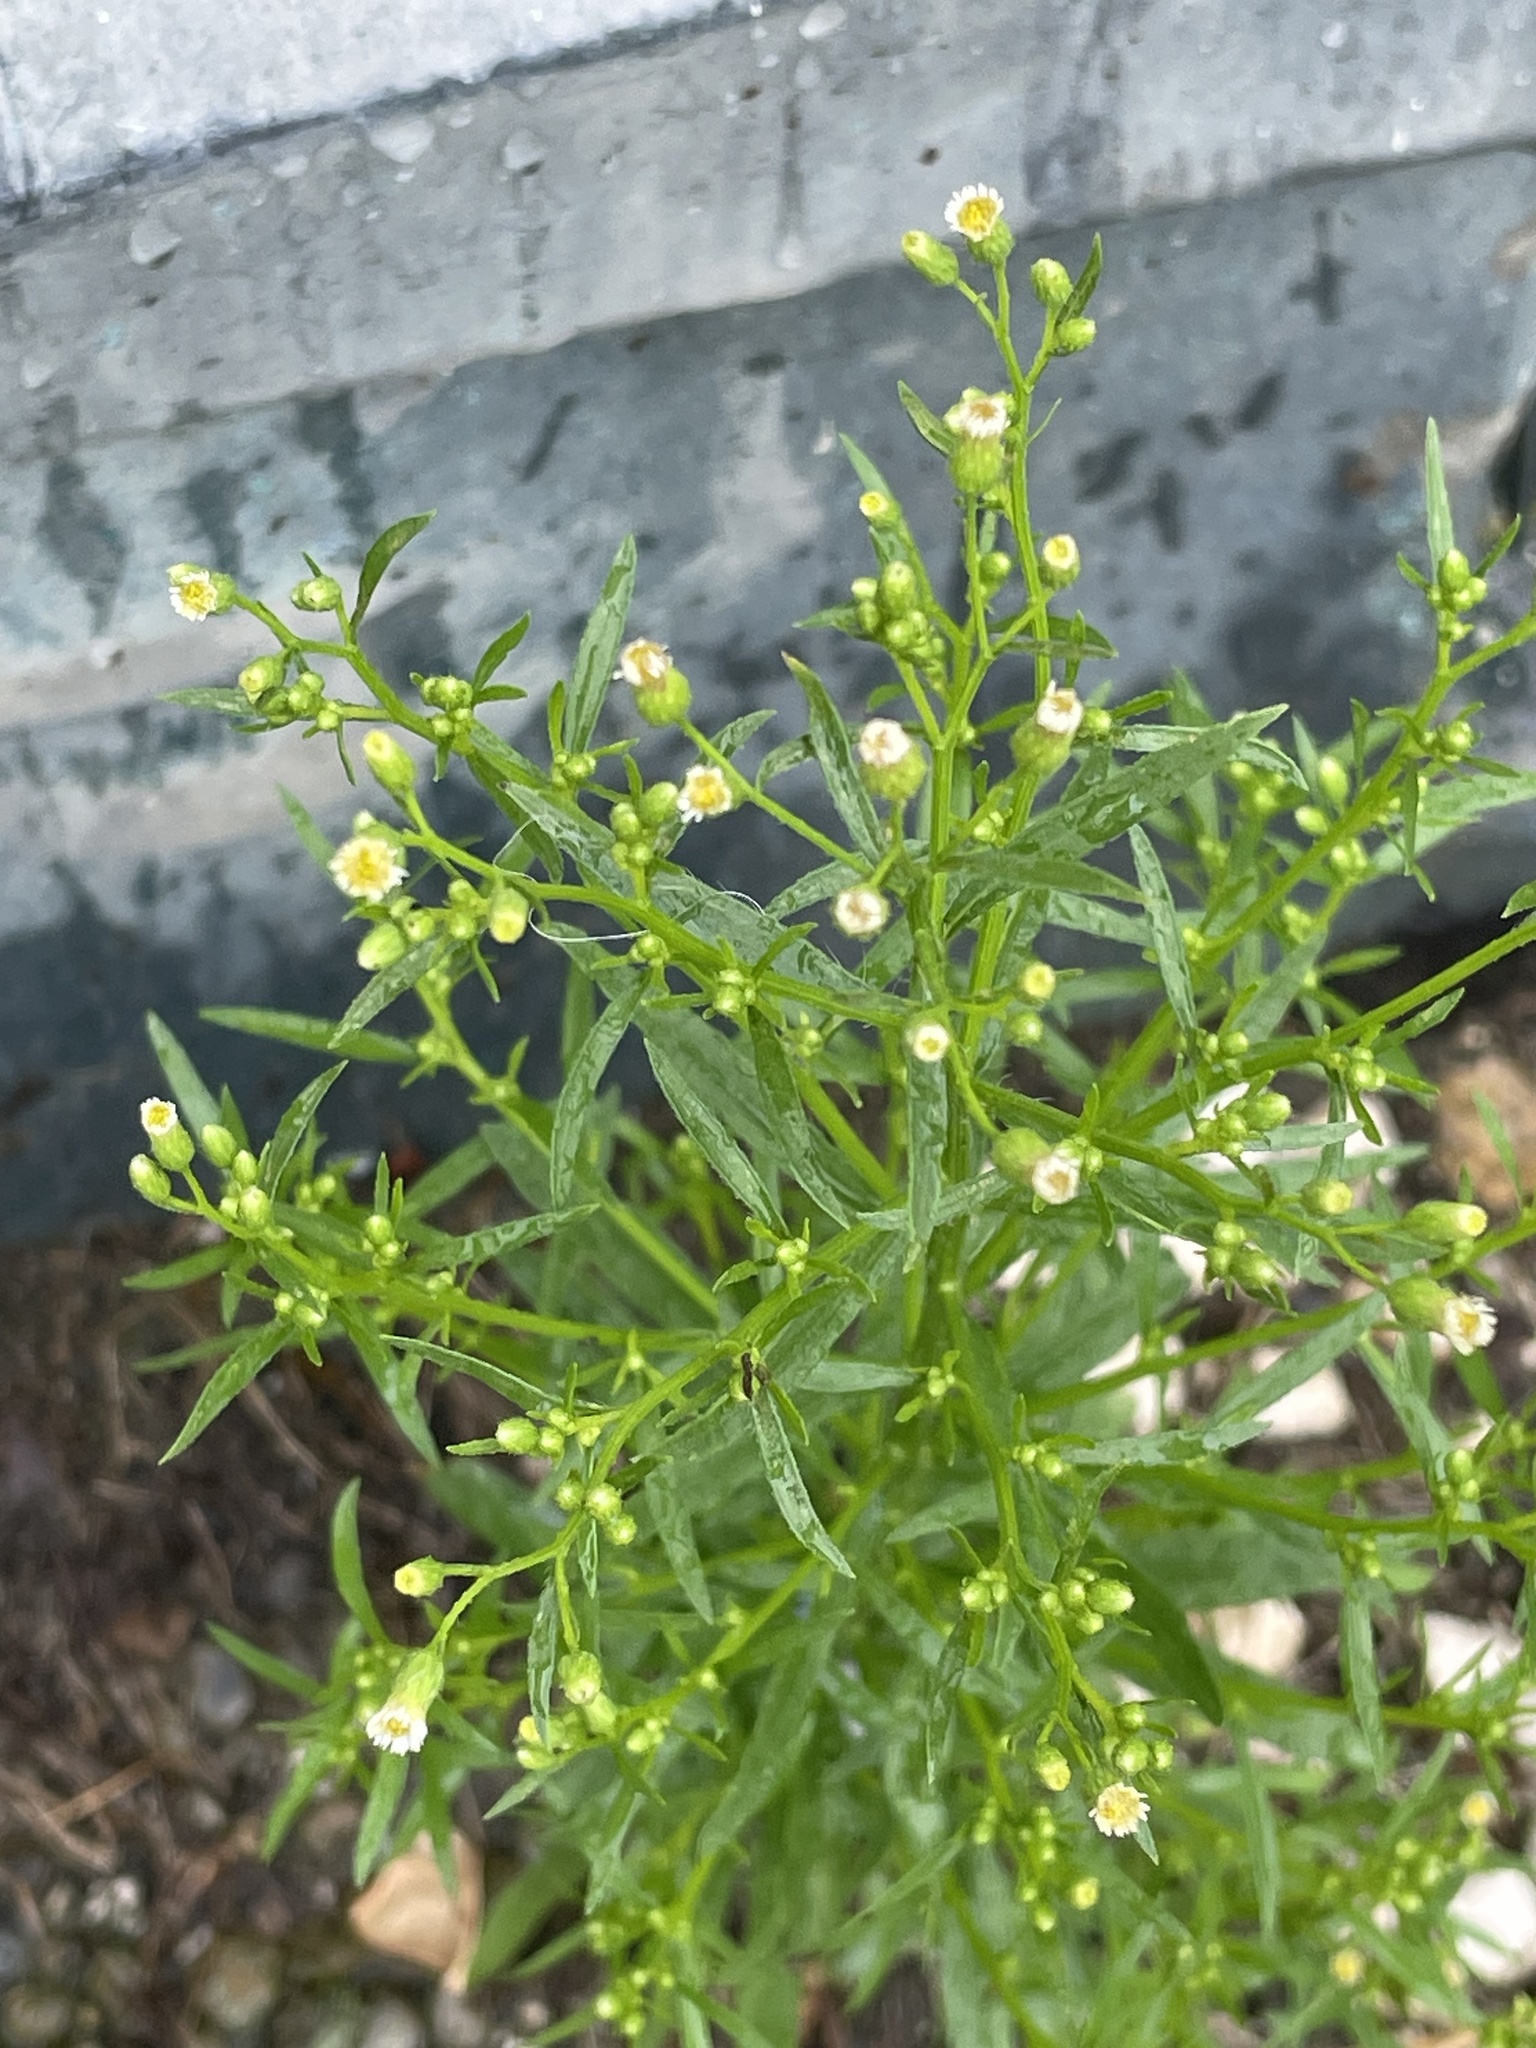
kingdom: Plantae
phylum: Tracheophyta
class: Magnoliopsida
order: Asterales
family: Asteraceae
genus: Erigeron
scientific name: Erigeron canadensis
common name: Canadian fleabane
